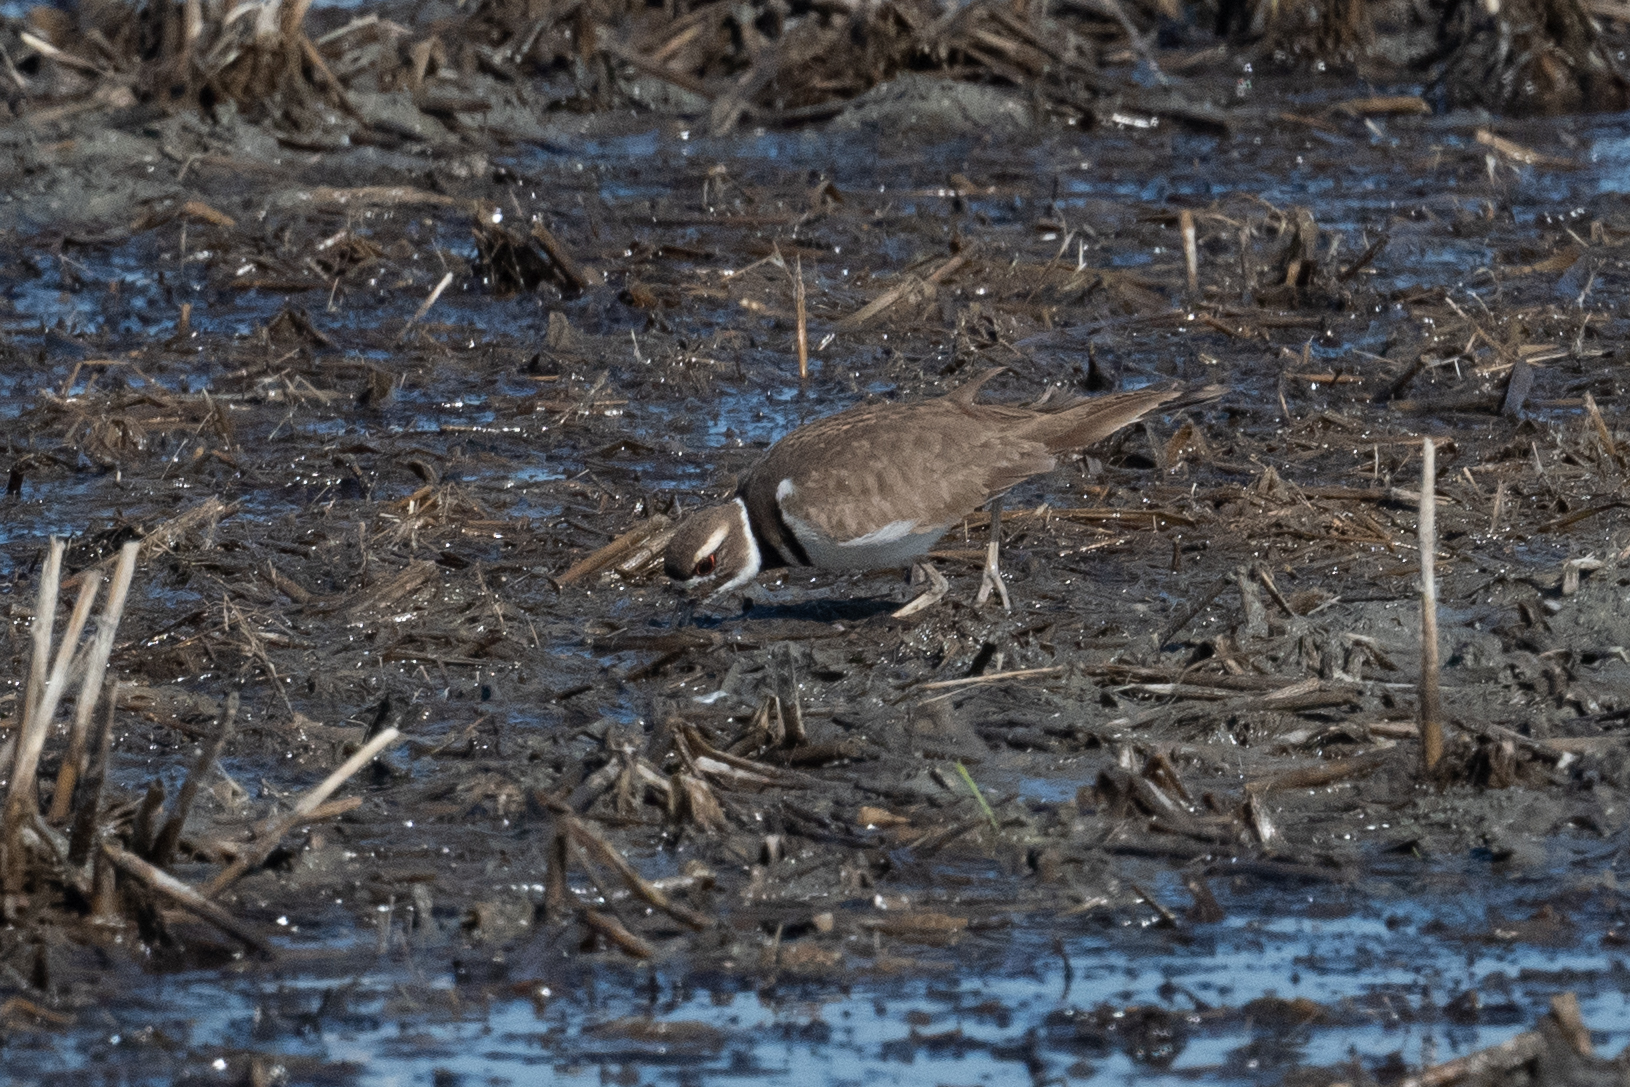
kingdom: Animalia
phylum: Chordata
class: Aves
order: Charadriiformes
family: Charadriidae
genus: Charadrius
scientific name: Charadrius vociferus
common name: Killdeer
